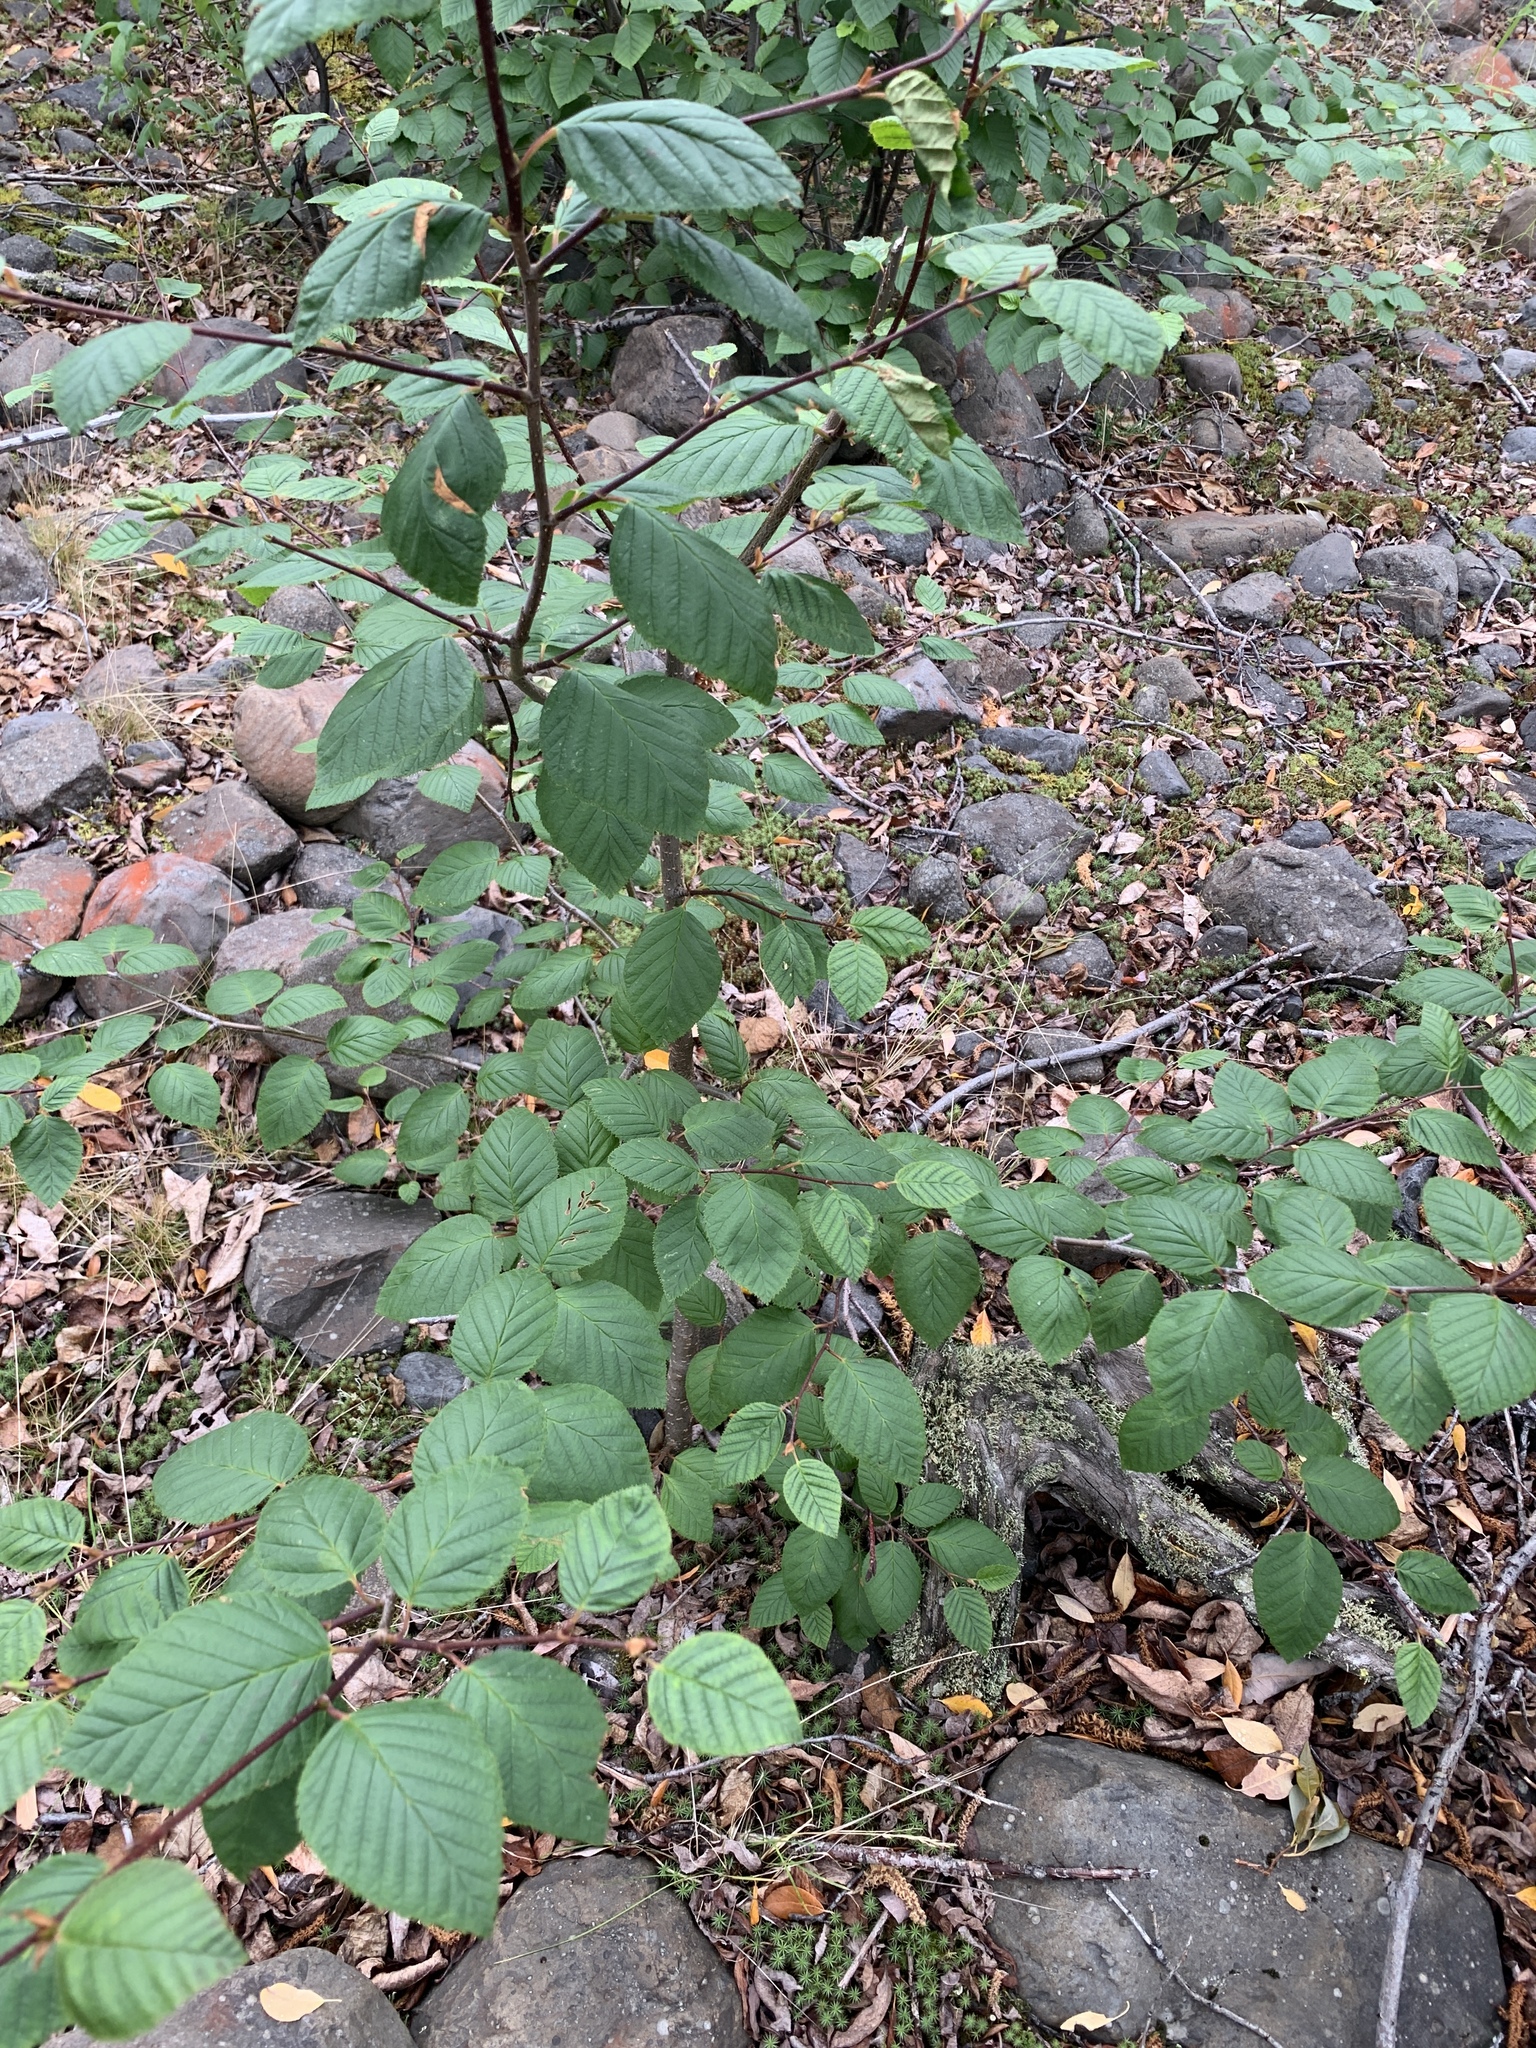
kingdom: Plantae
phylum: Tracheophyta
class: Magnoliopsida
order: Fagales
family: Betulaceae
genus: Alnus
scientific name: Alnus alnobetula
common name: Green alder
